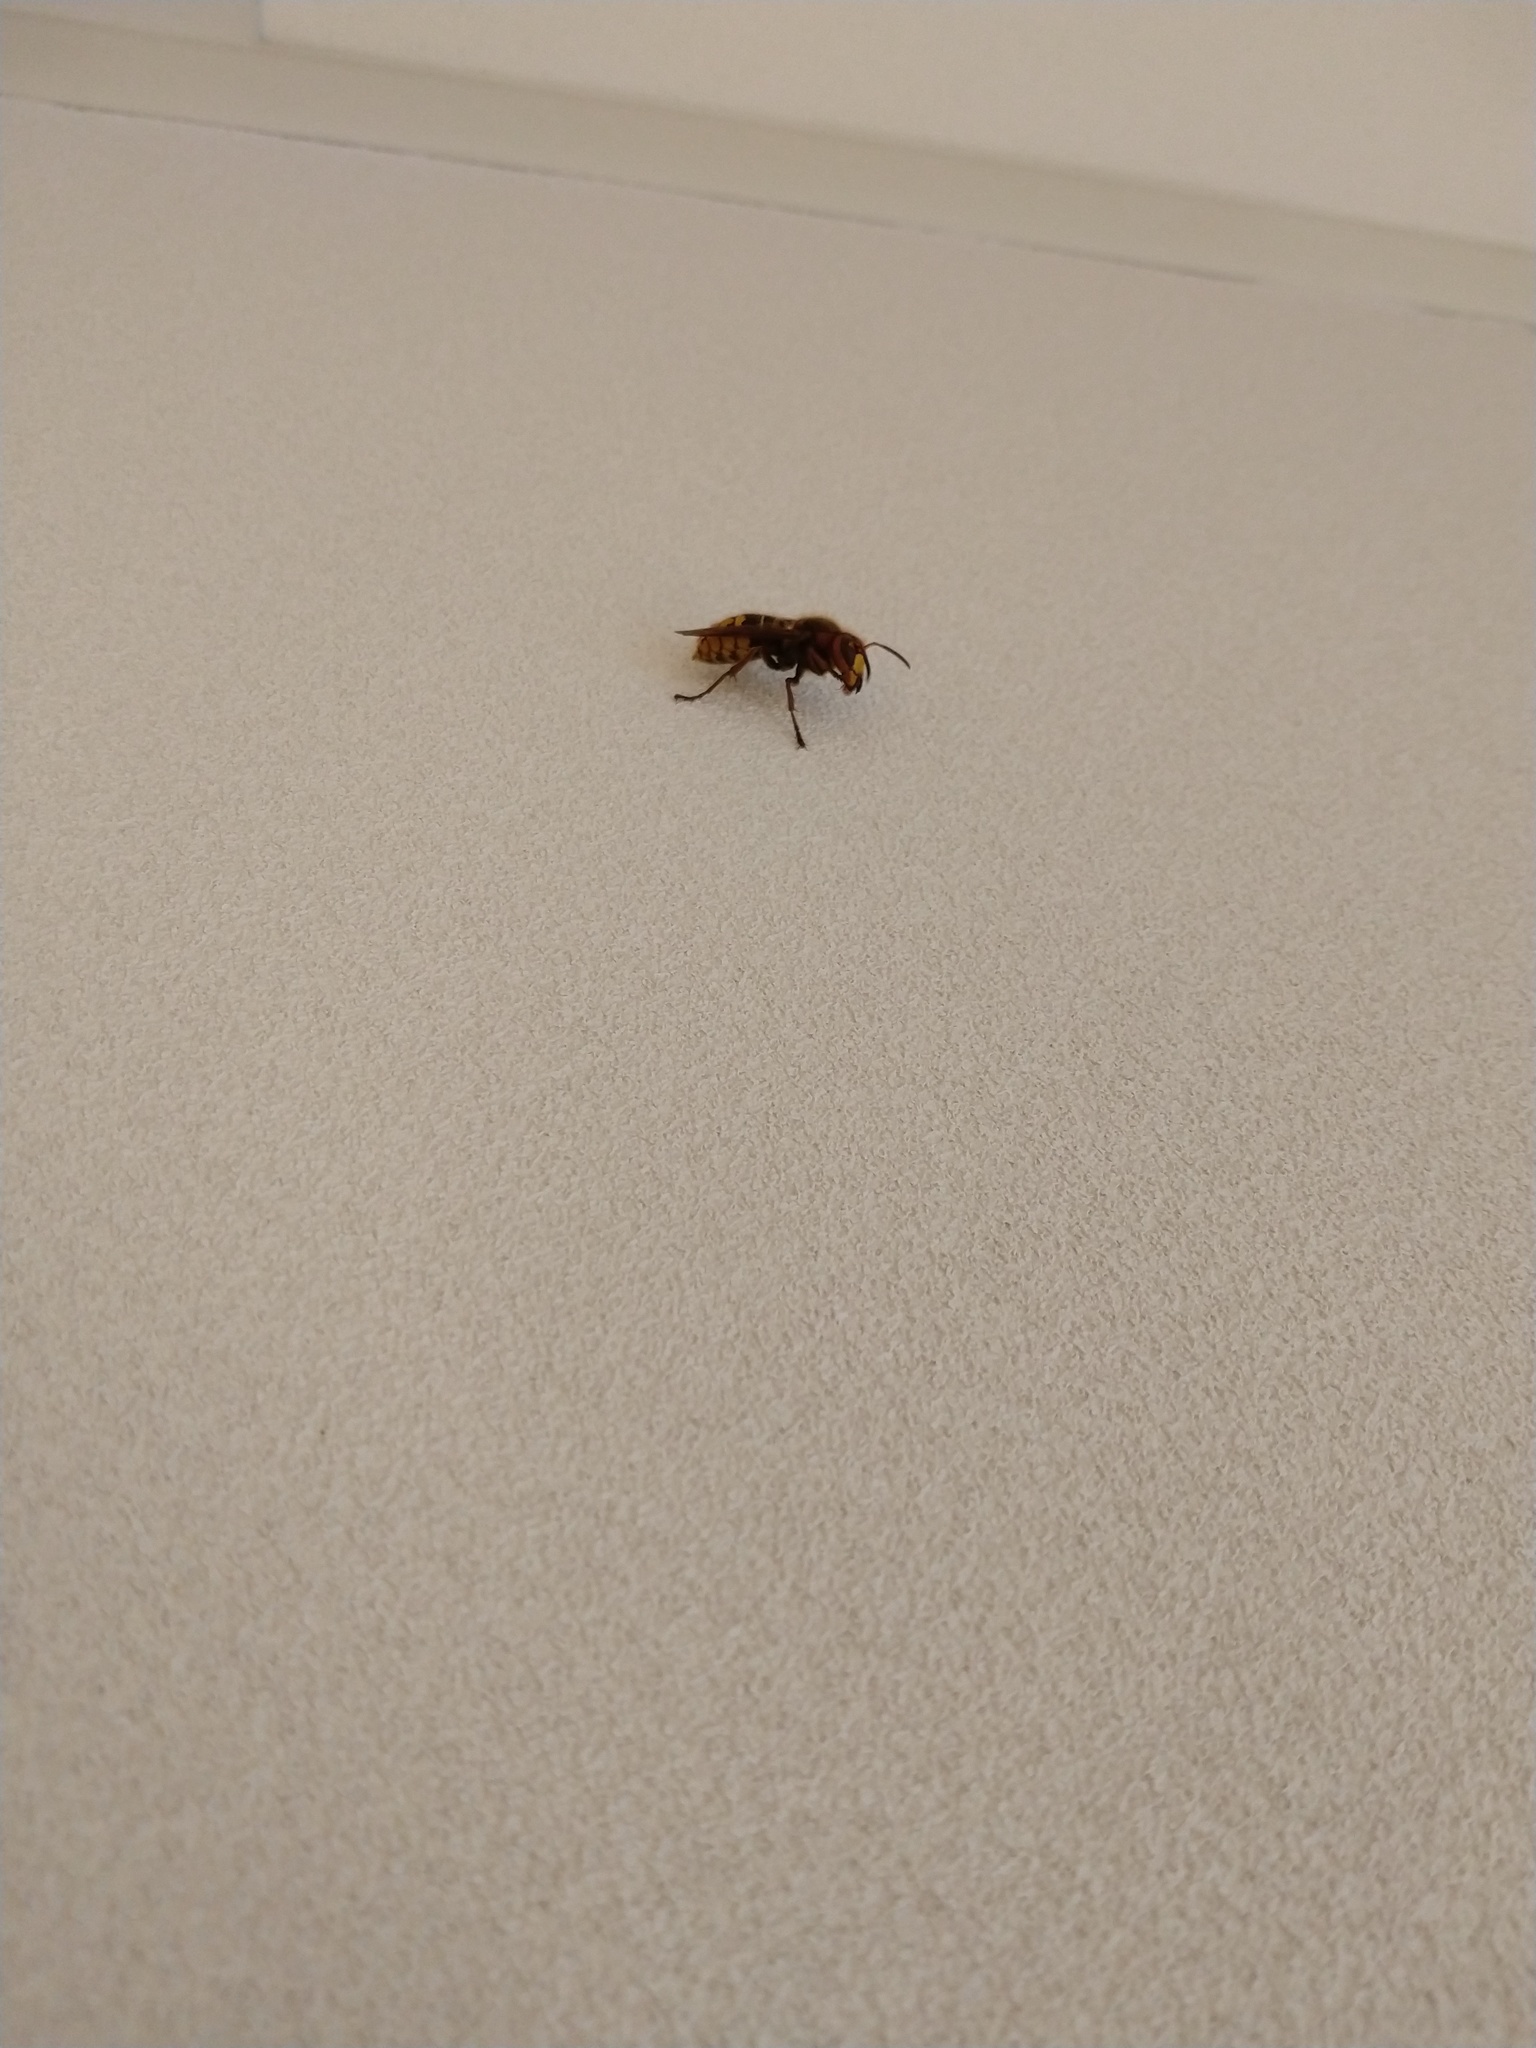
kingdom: Animalia
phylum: Arthropoda
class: Insecta
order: Hymenoptera
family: Vespidae
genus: Vespa
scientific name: Vespa crabro
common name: Hornet
